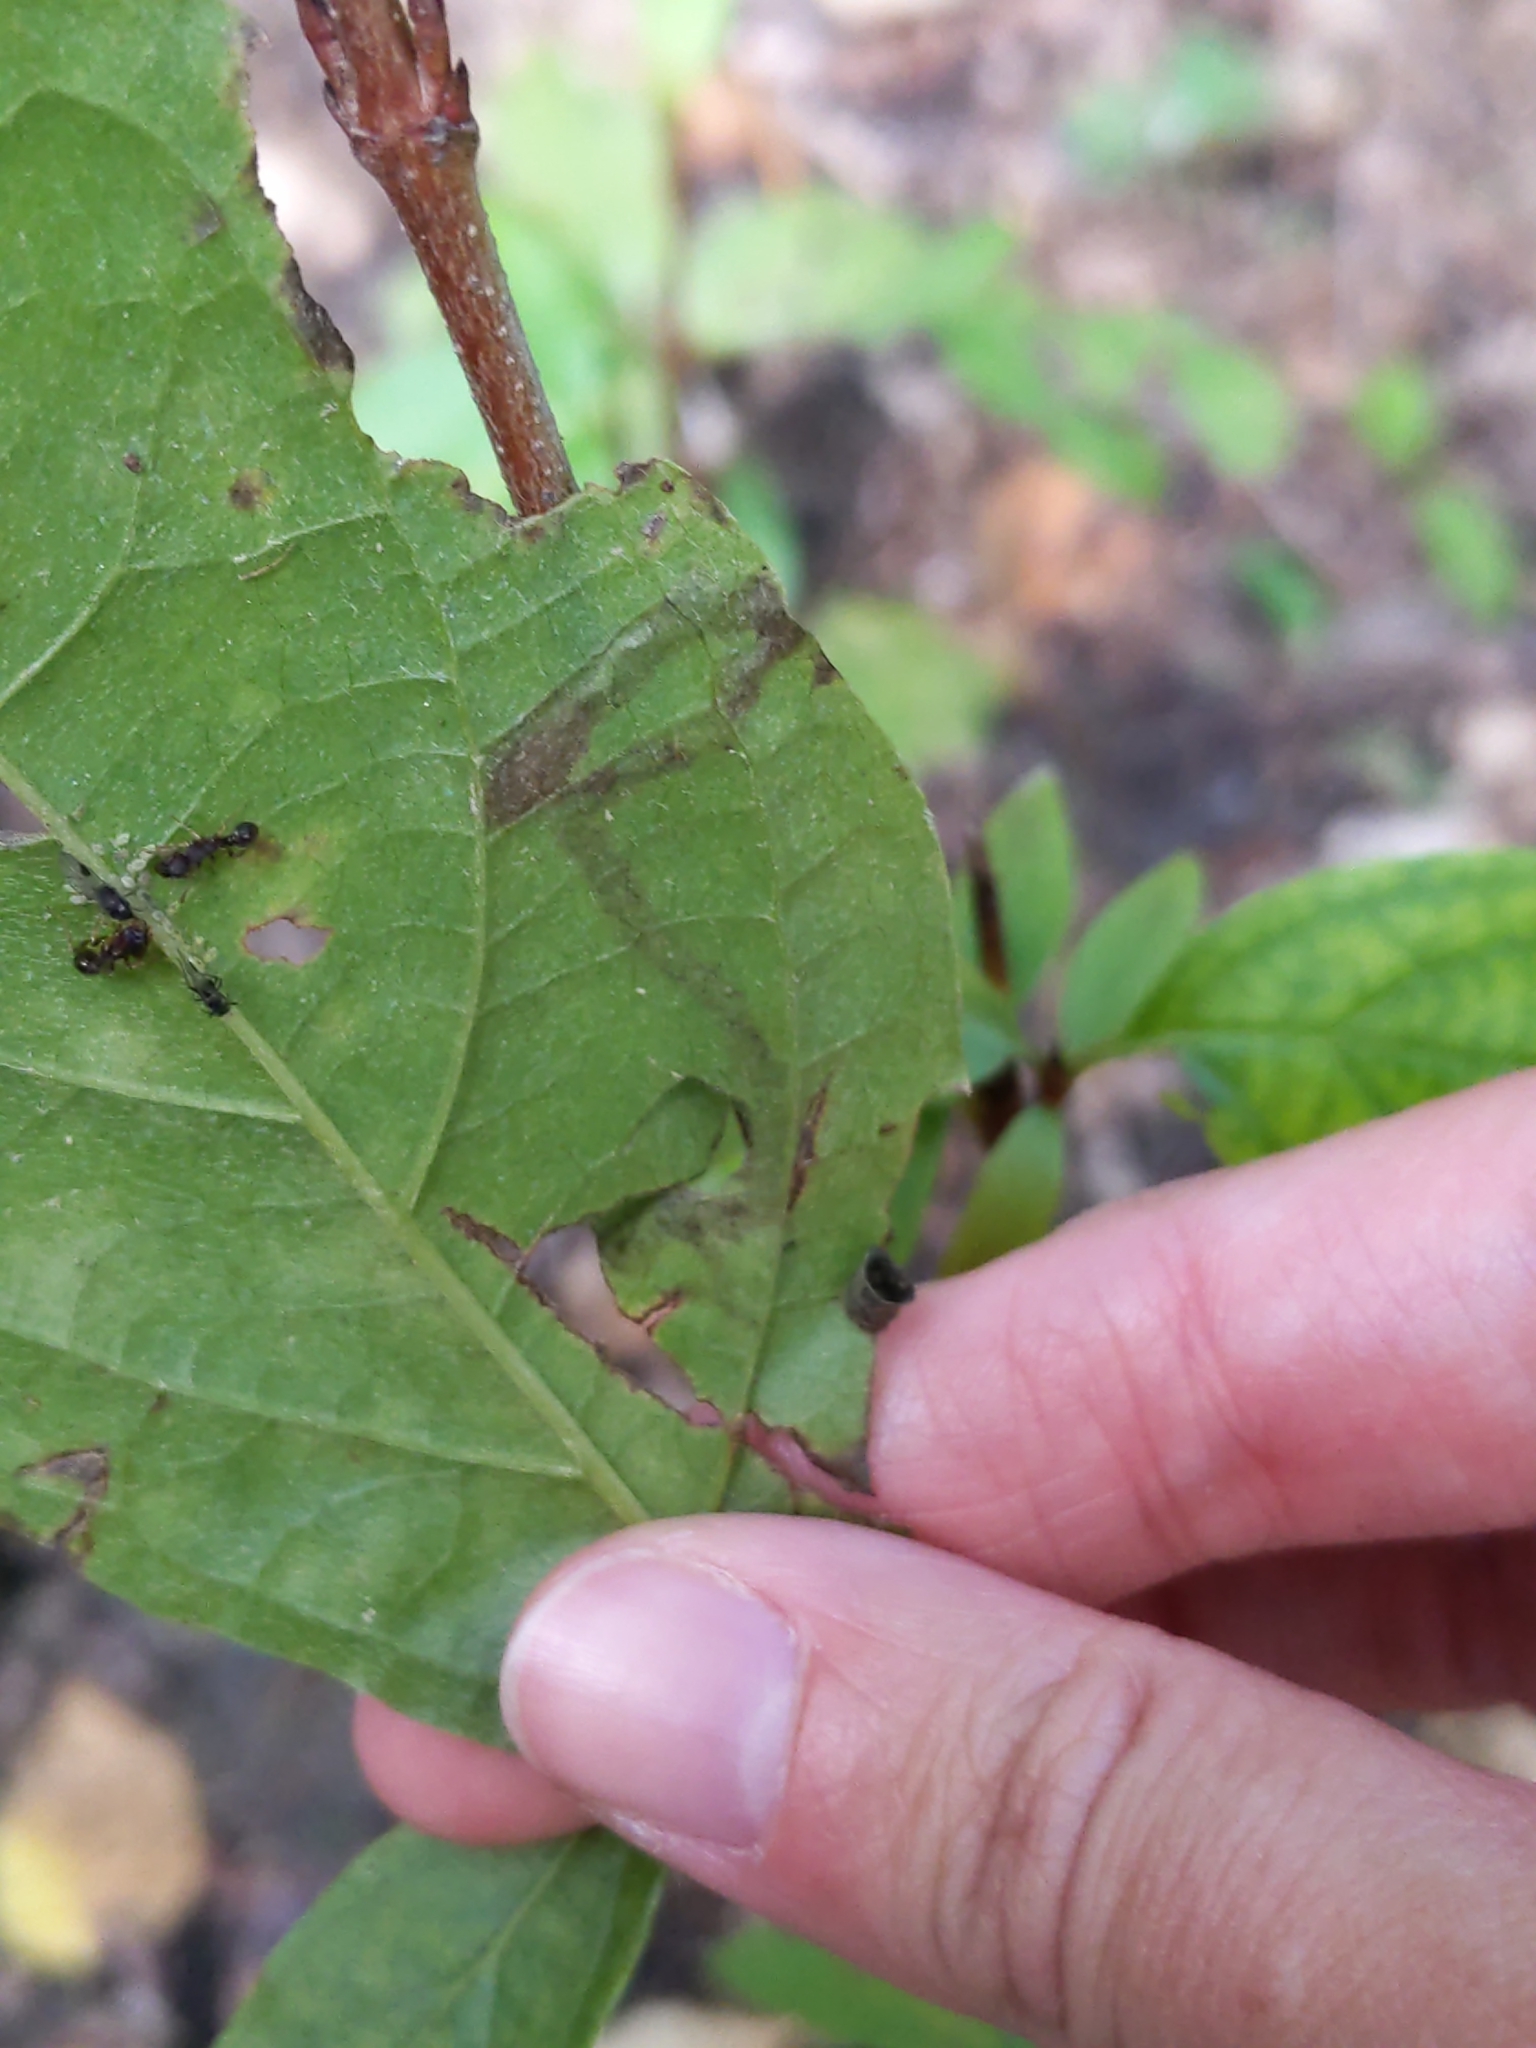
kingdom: Animalia
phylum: Arthropoda
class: Insecta
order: Diptera
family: Agromyzidae
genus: Phytomyza
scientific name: Phytomyza agromyzina
